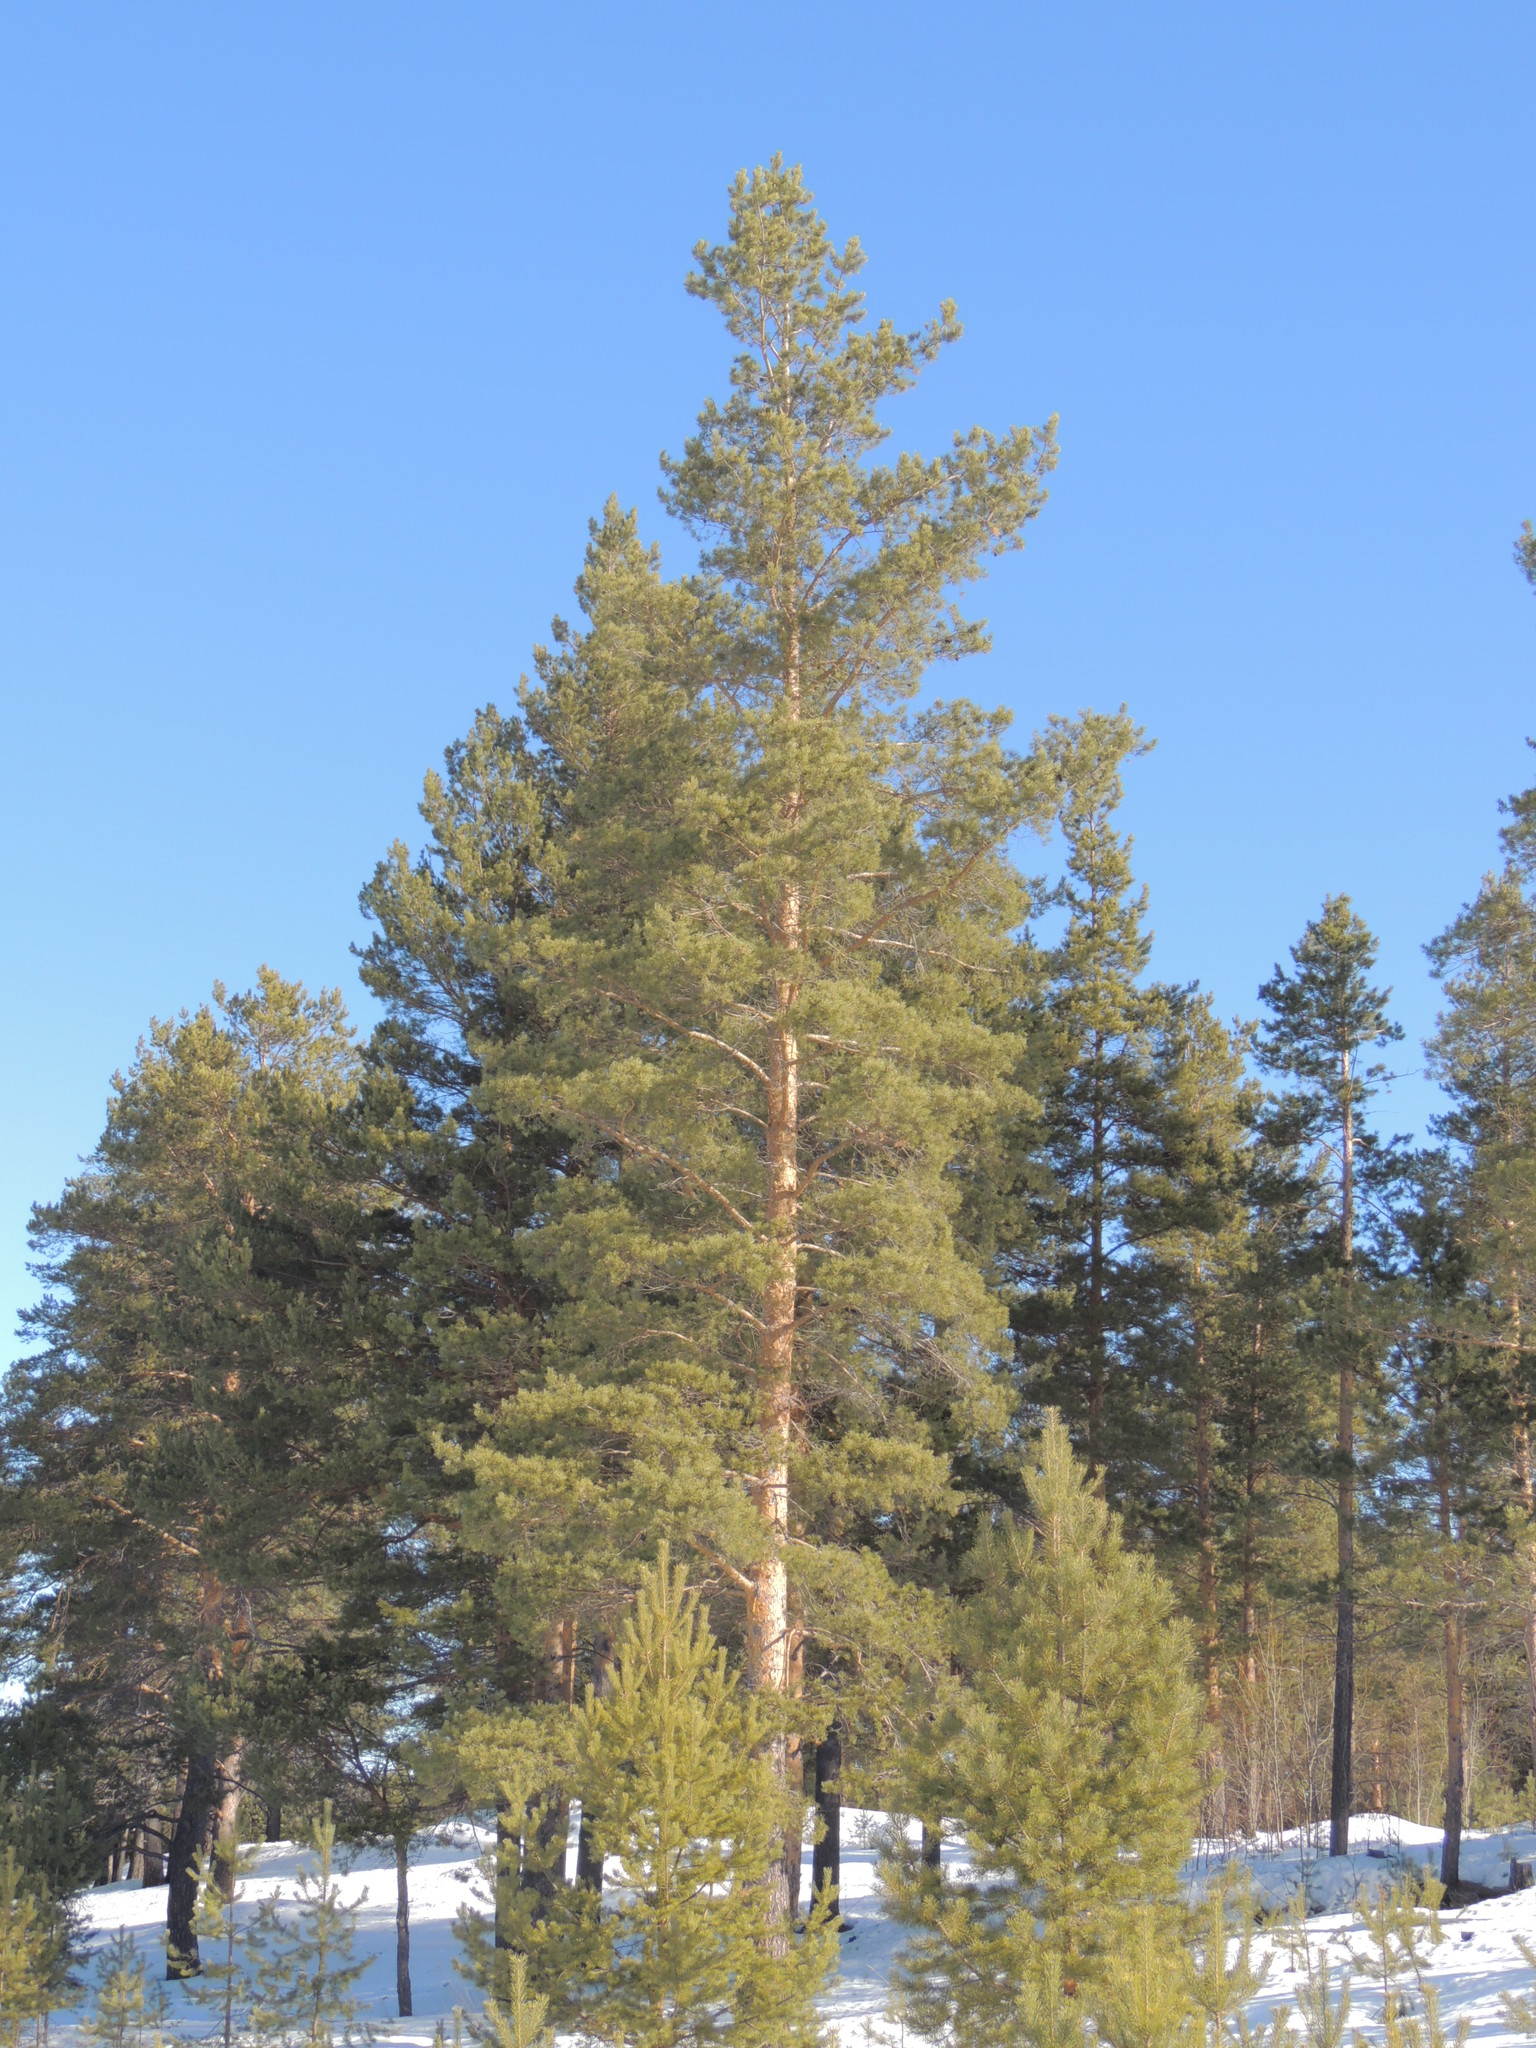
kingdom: Plantae
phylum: Tracheophyta
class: Pinopsida
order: Pinales
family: Pinaceae
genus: Pinus
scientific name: Pinus sylvestris
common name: Scots pine
